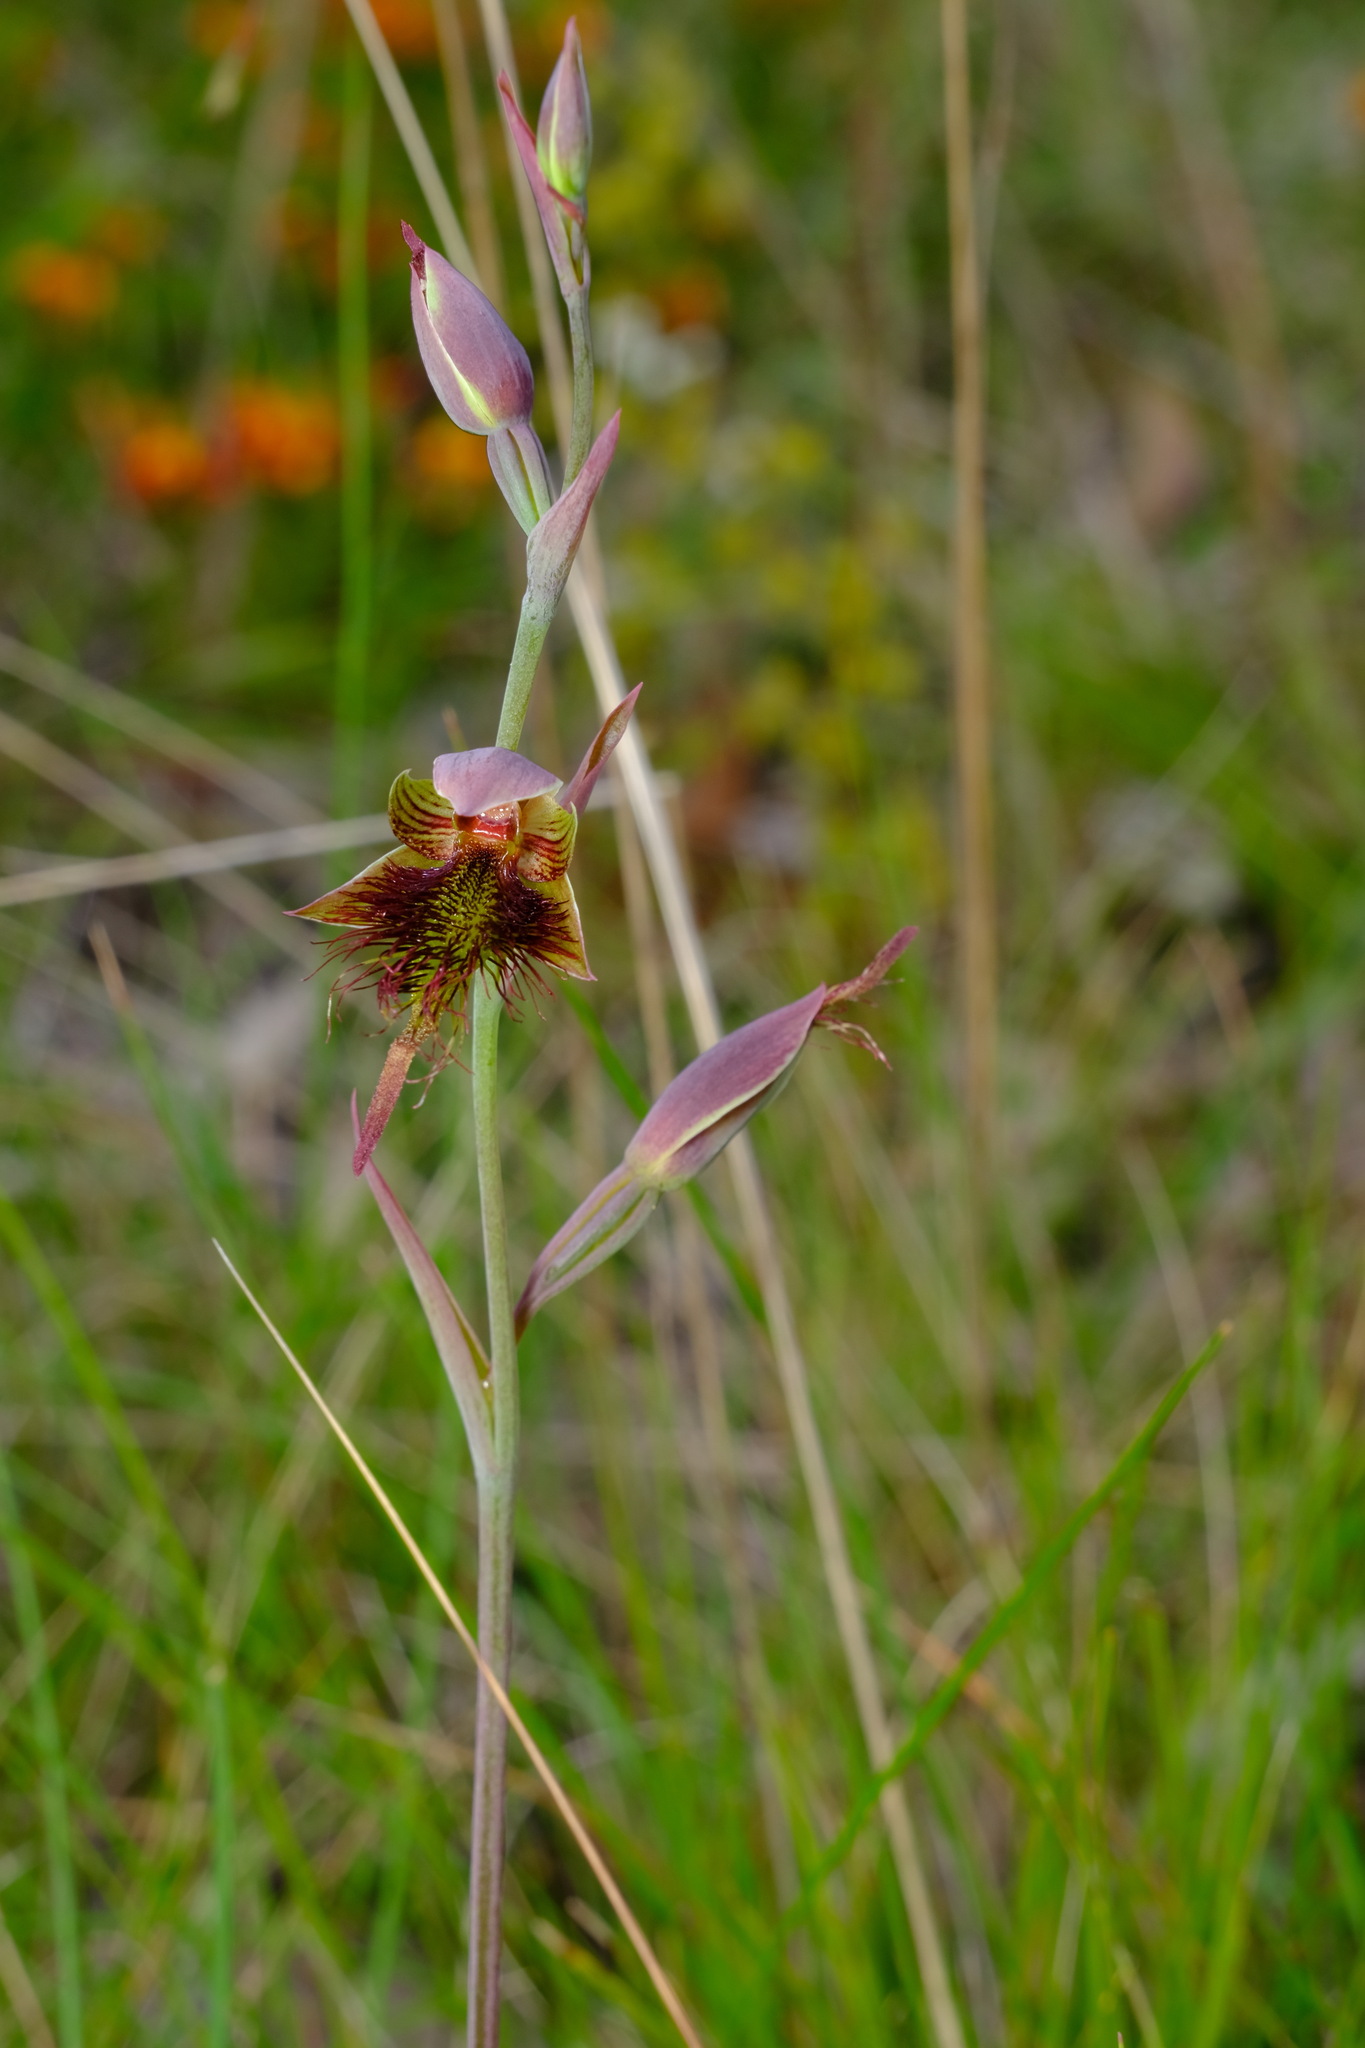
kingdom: Plantae
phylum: Tracheophyta
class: Liliopsida
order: Asparagales
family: Orchidaceae
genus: Calochilus
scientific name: Calochilus paludosus
